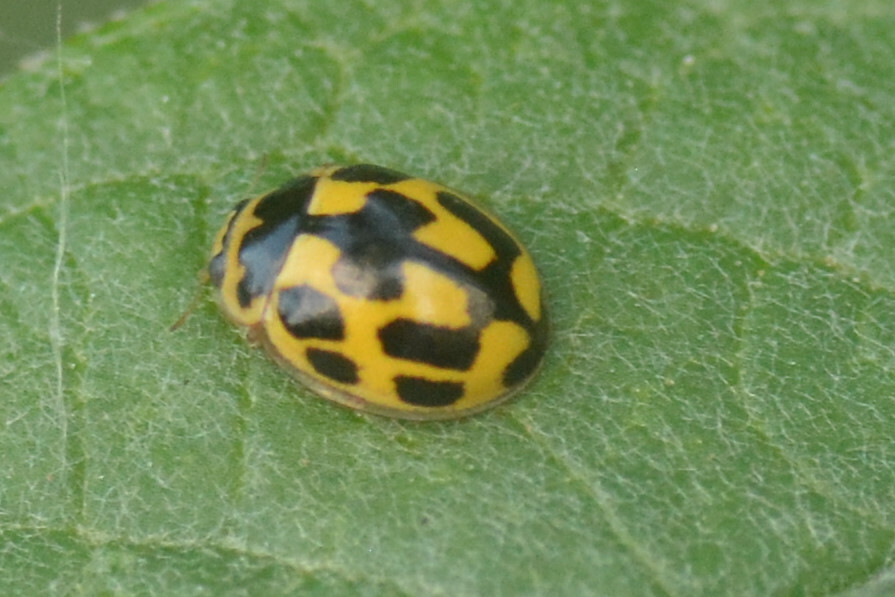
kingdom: Animalia
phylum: Arthropoda
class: Insecta
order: Coleoptera
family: Coccinellidae
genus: Propylaea
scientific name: Propylaea quatuordecimpunctata
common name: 14-spotted ladybird beetle
